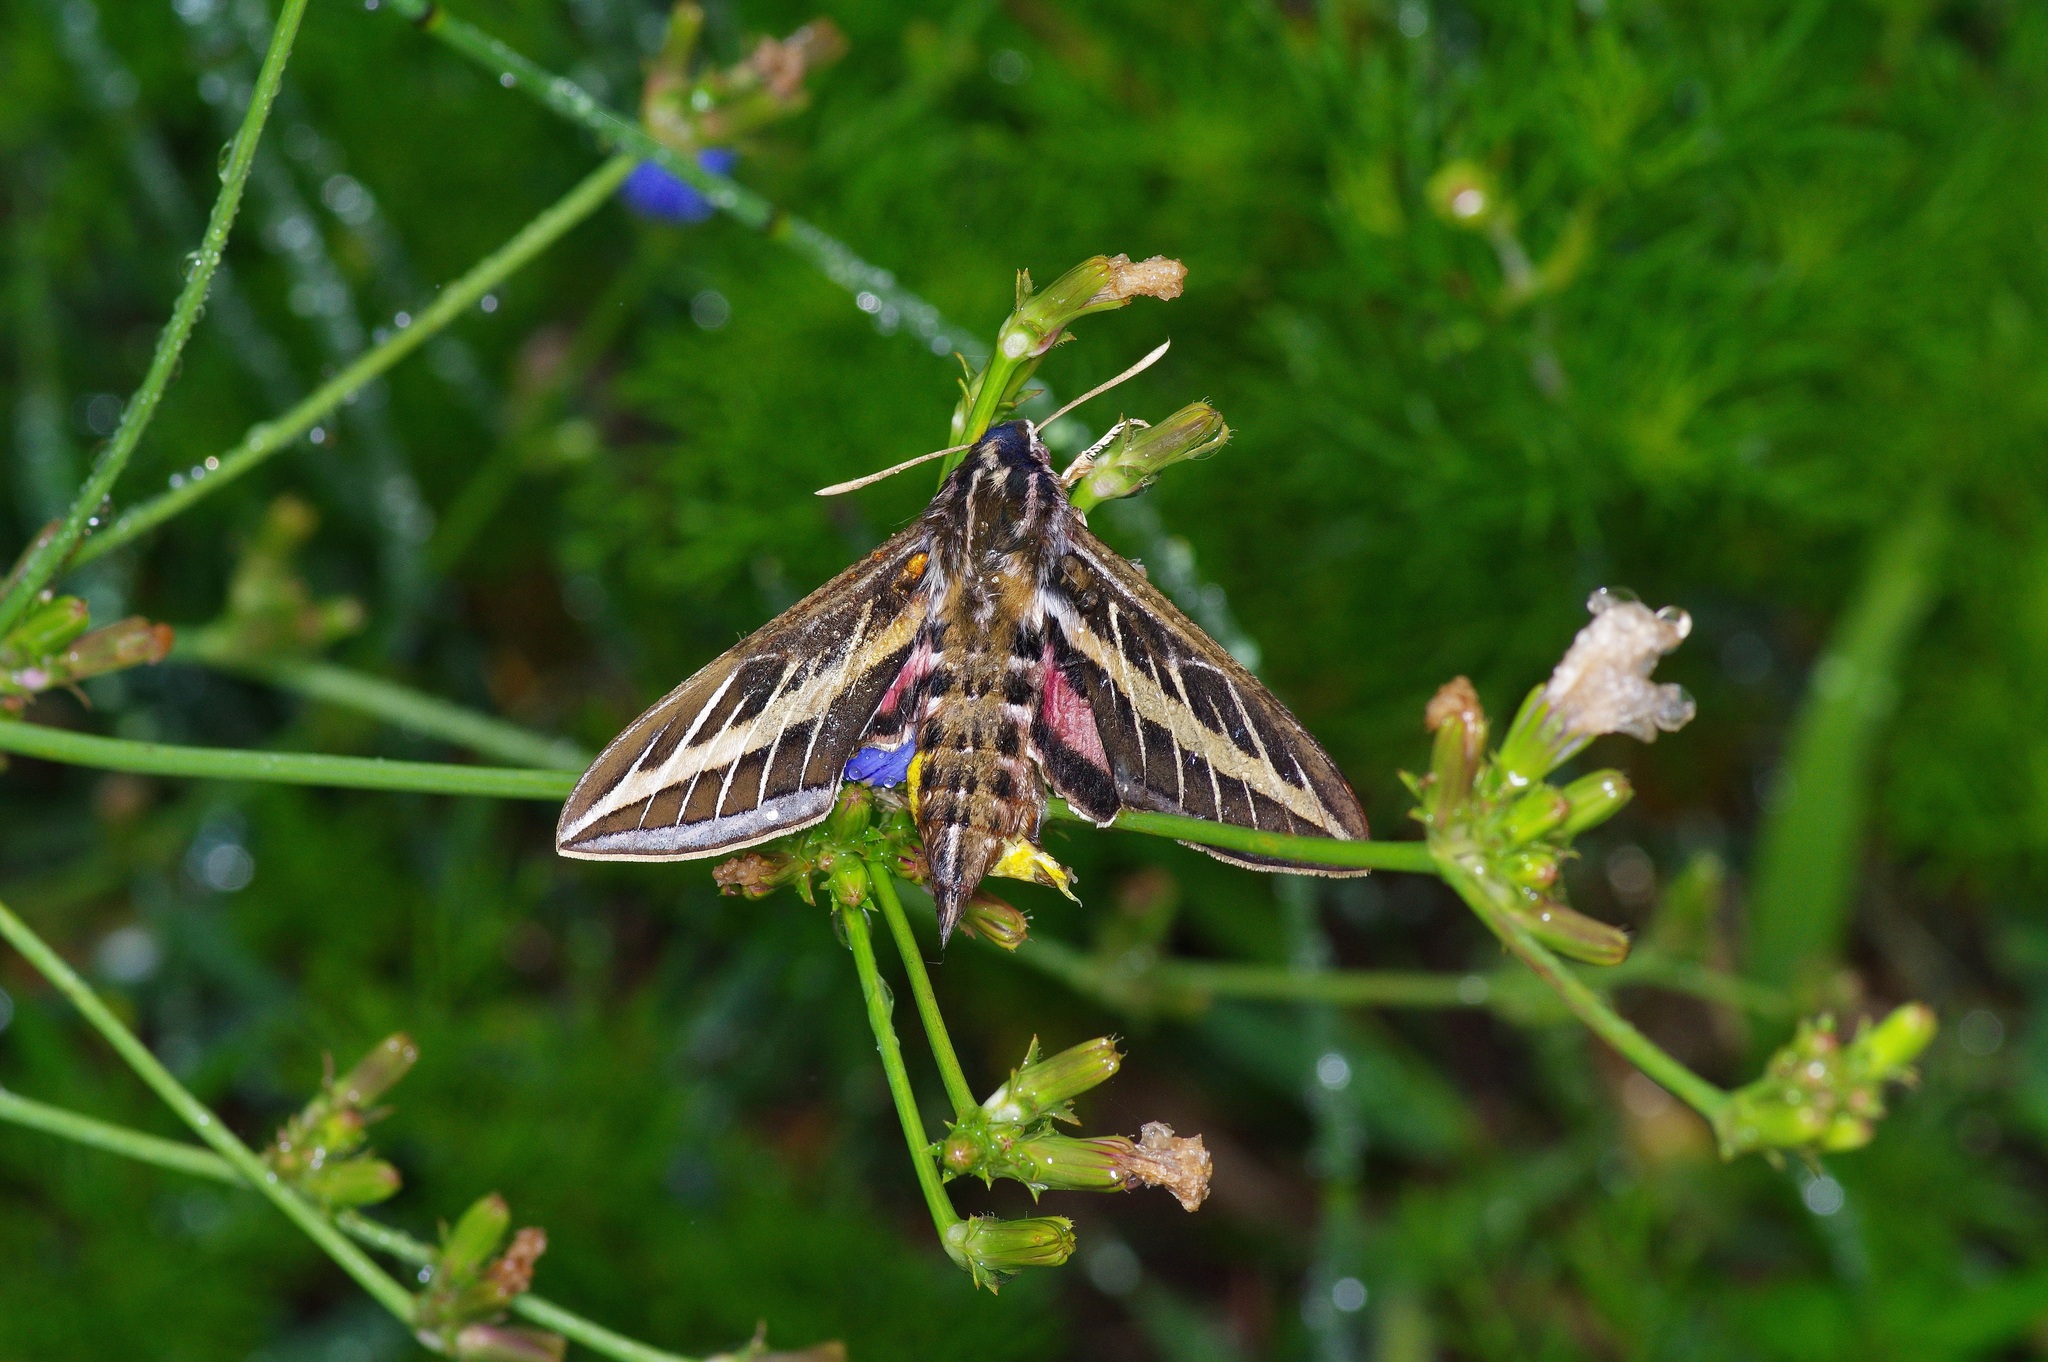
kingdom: Animalia
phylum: Arthropoda
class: Insecta
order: Lepidoptera
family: Sphingidae
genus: Hyles
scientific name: Hyles lineata
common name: White-lined sphinx
